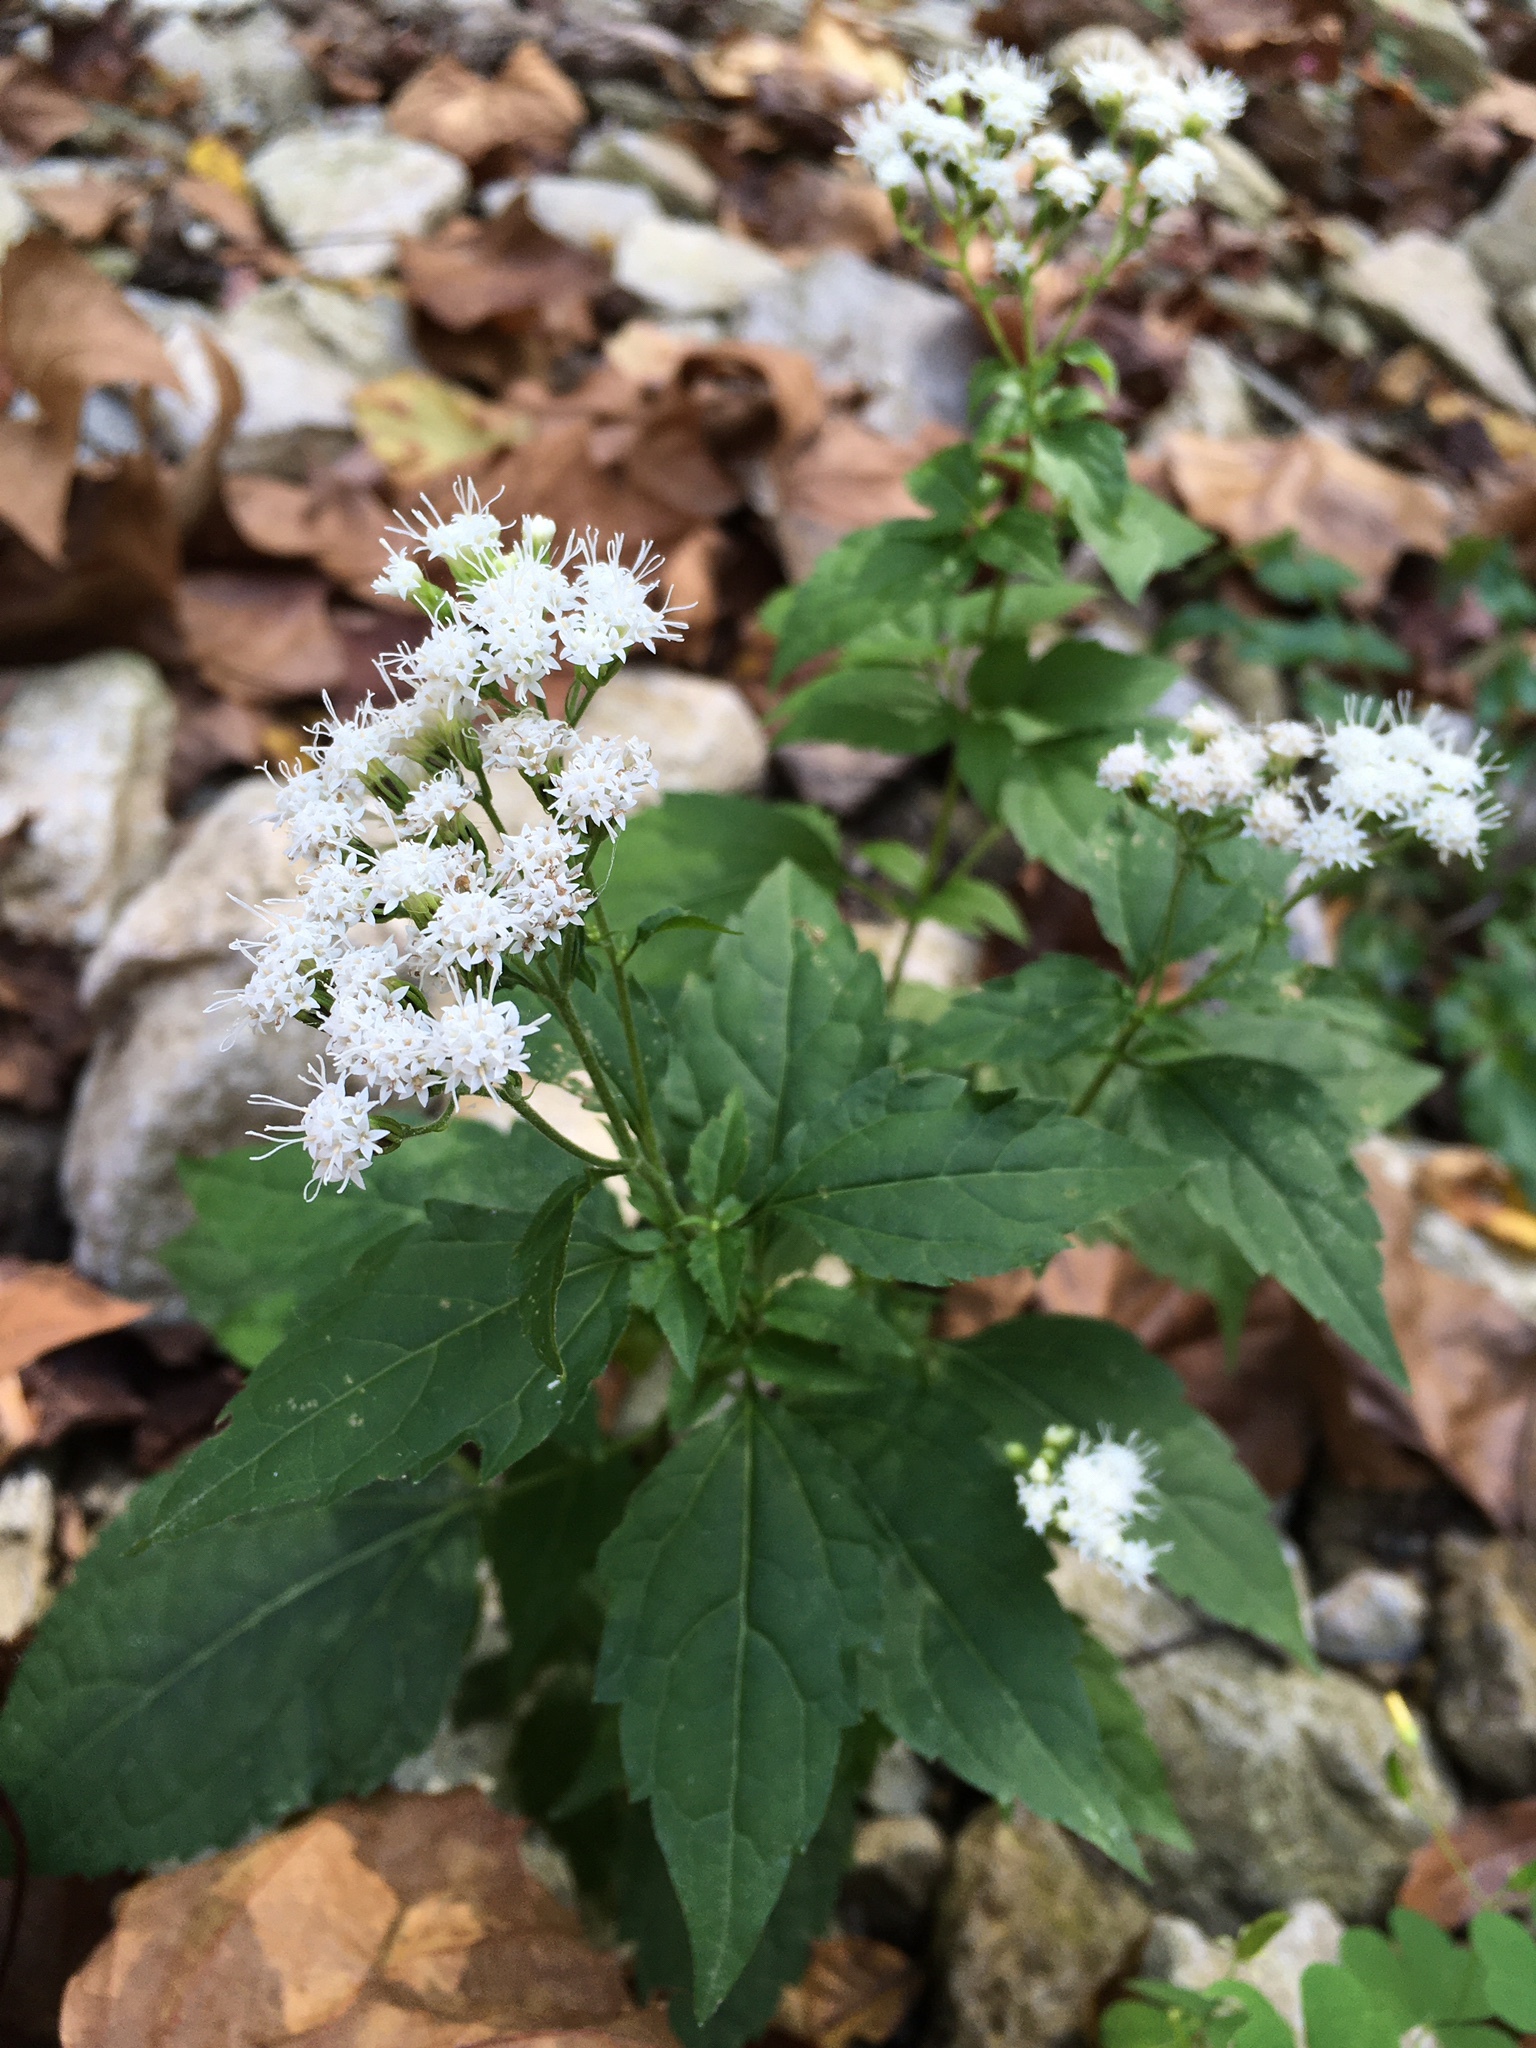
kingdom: Plantae
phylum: Tracheophyta
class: Magnoliopsida
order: Asterales
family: Asteraceae
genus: Ageratina
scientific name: Ageratina altissima
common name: White snakeroot
